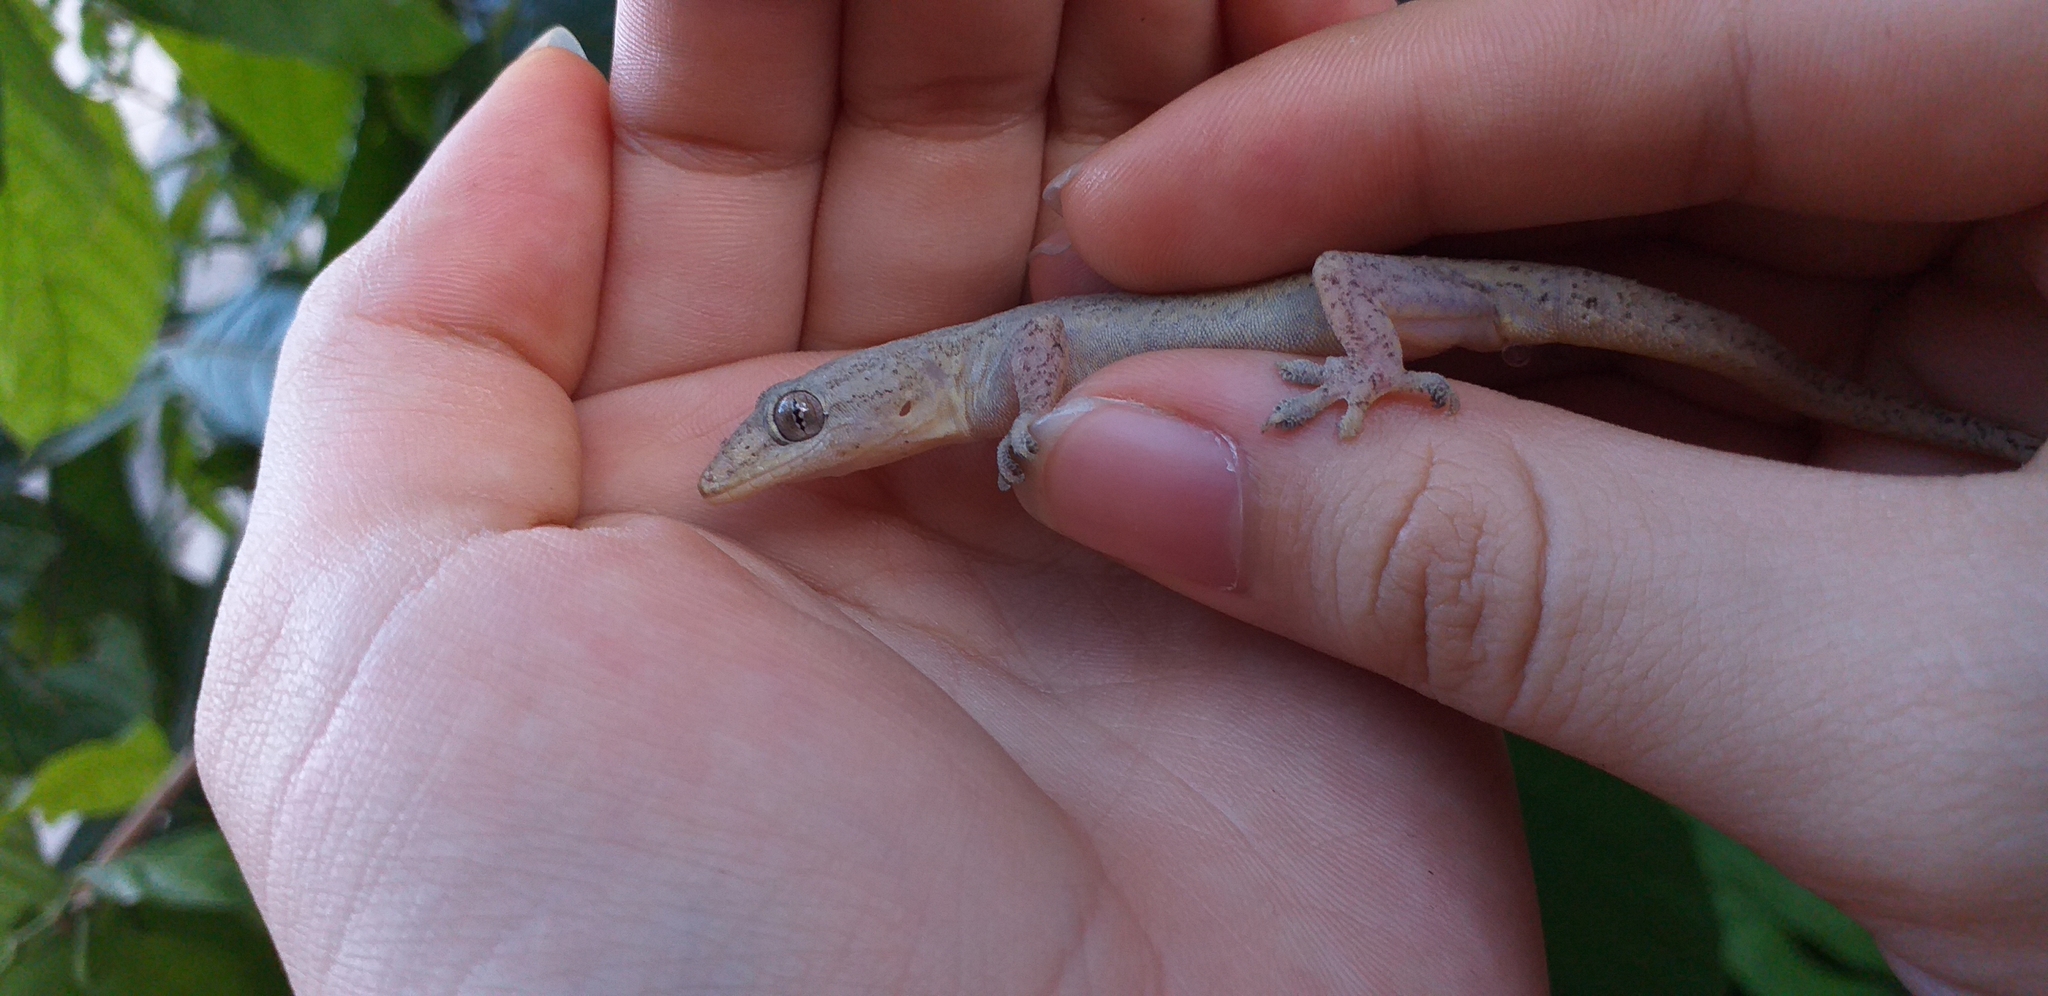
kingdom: Animalia
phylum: Chordata
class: Squamata
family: Gekkonidae
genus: Hemidactylus
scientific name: Hemidactylus frenatus
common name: Common house gecko
